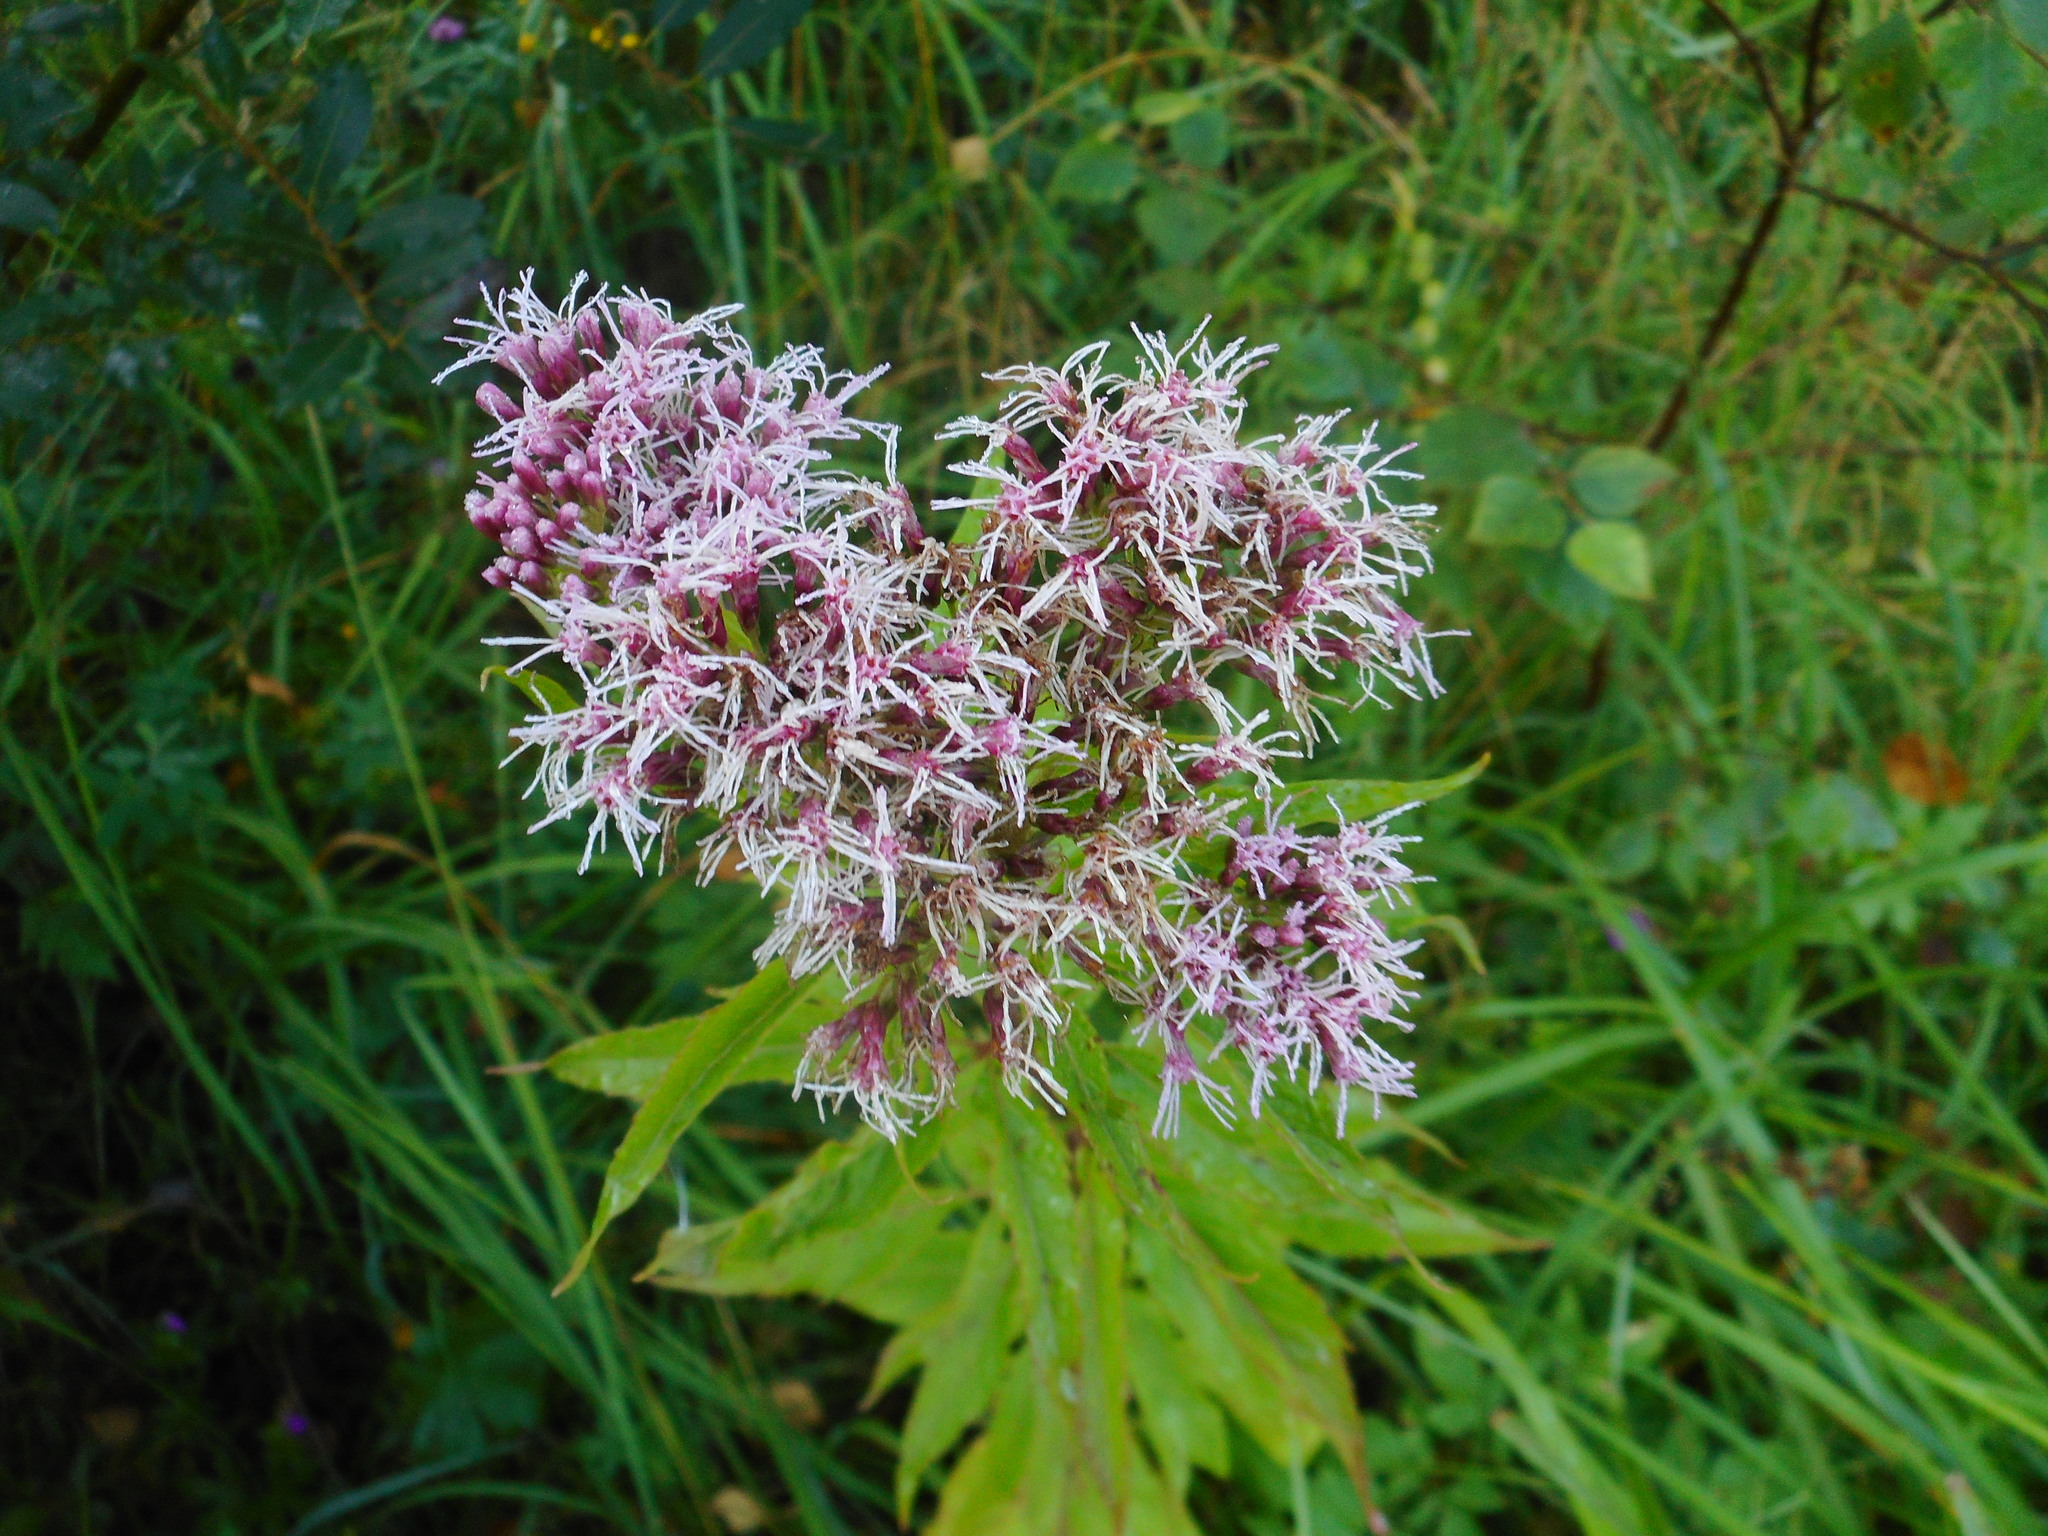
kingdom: Plantae
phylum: Tracheophyta
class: Magnoliopsida
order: Asterales
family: Asteraceae
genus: Eupatorium
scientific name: Eupatorium cannabinum
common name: Hemp-agrimony
